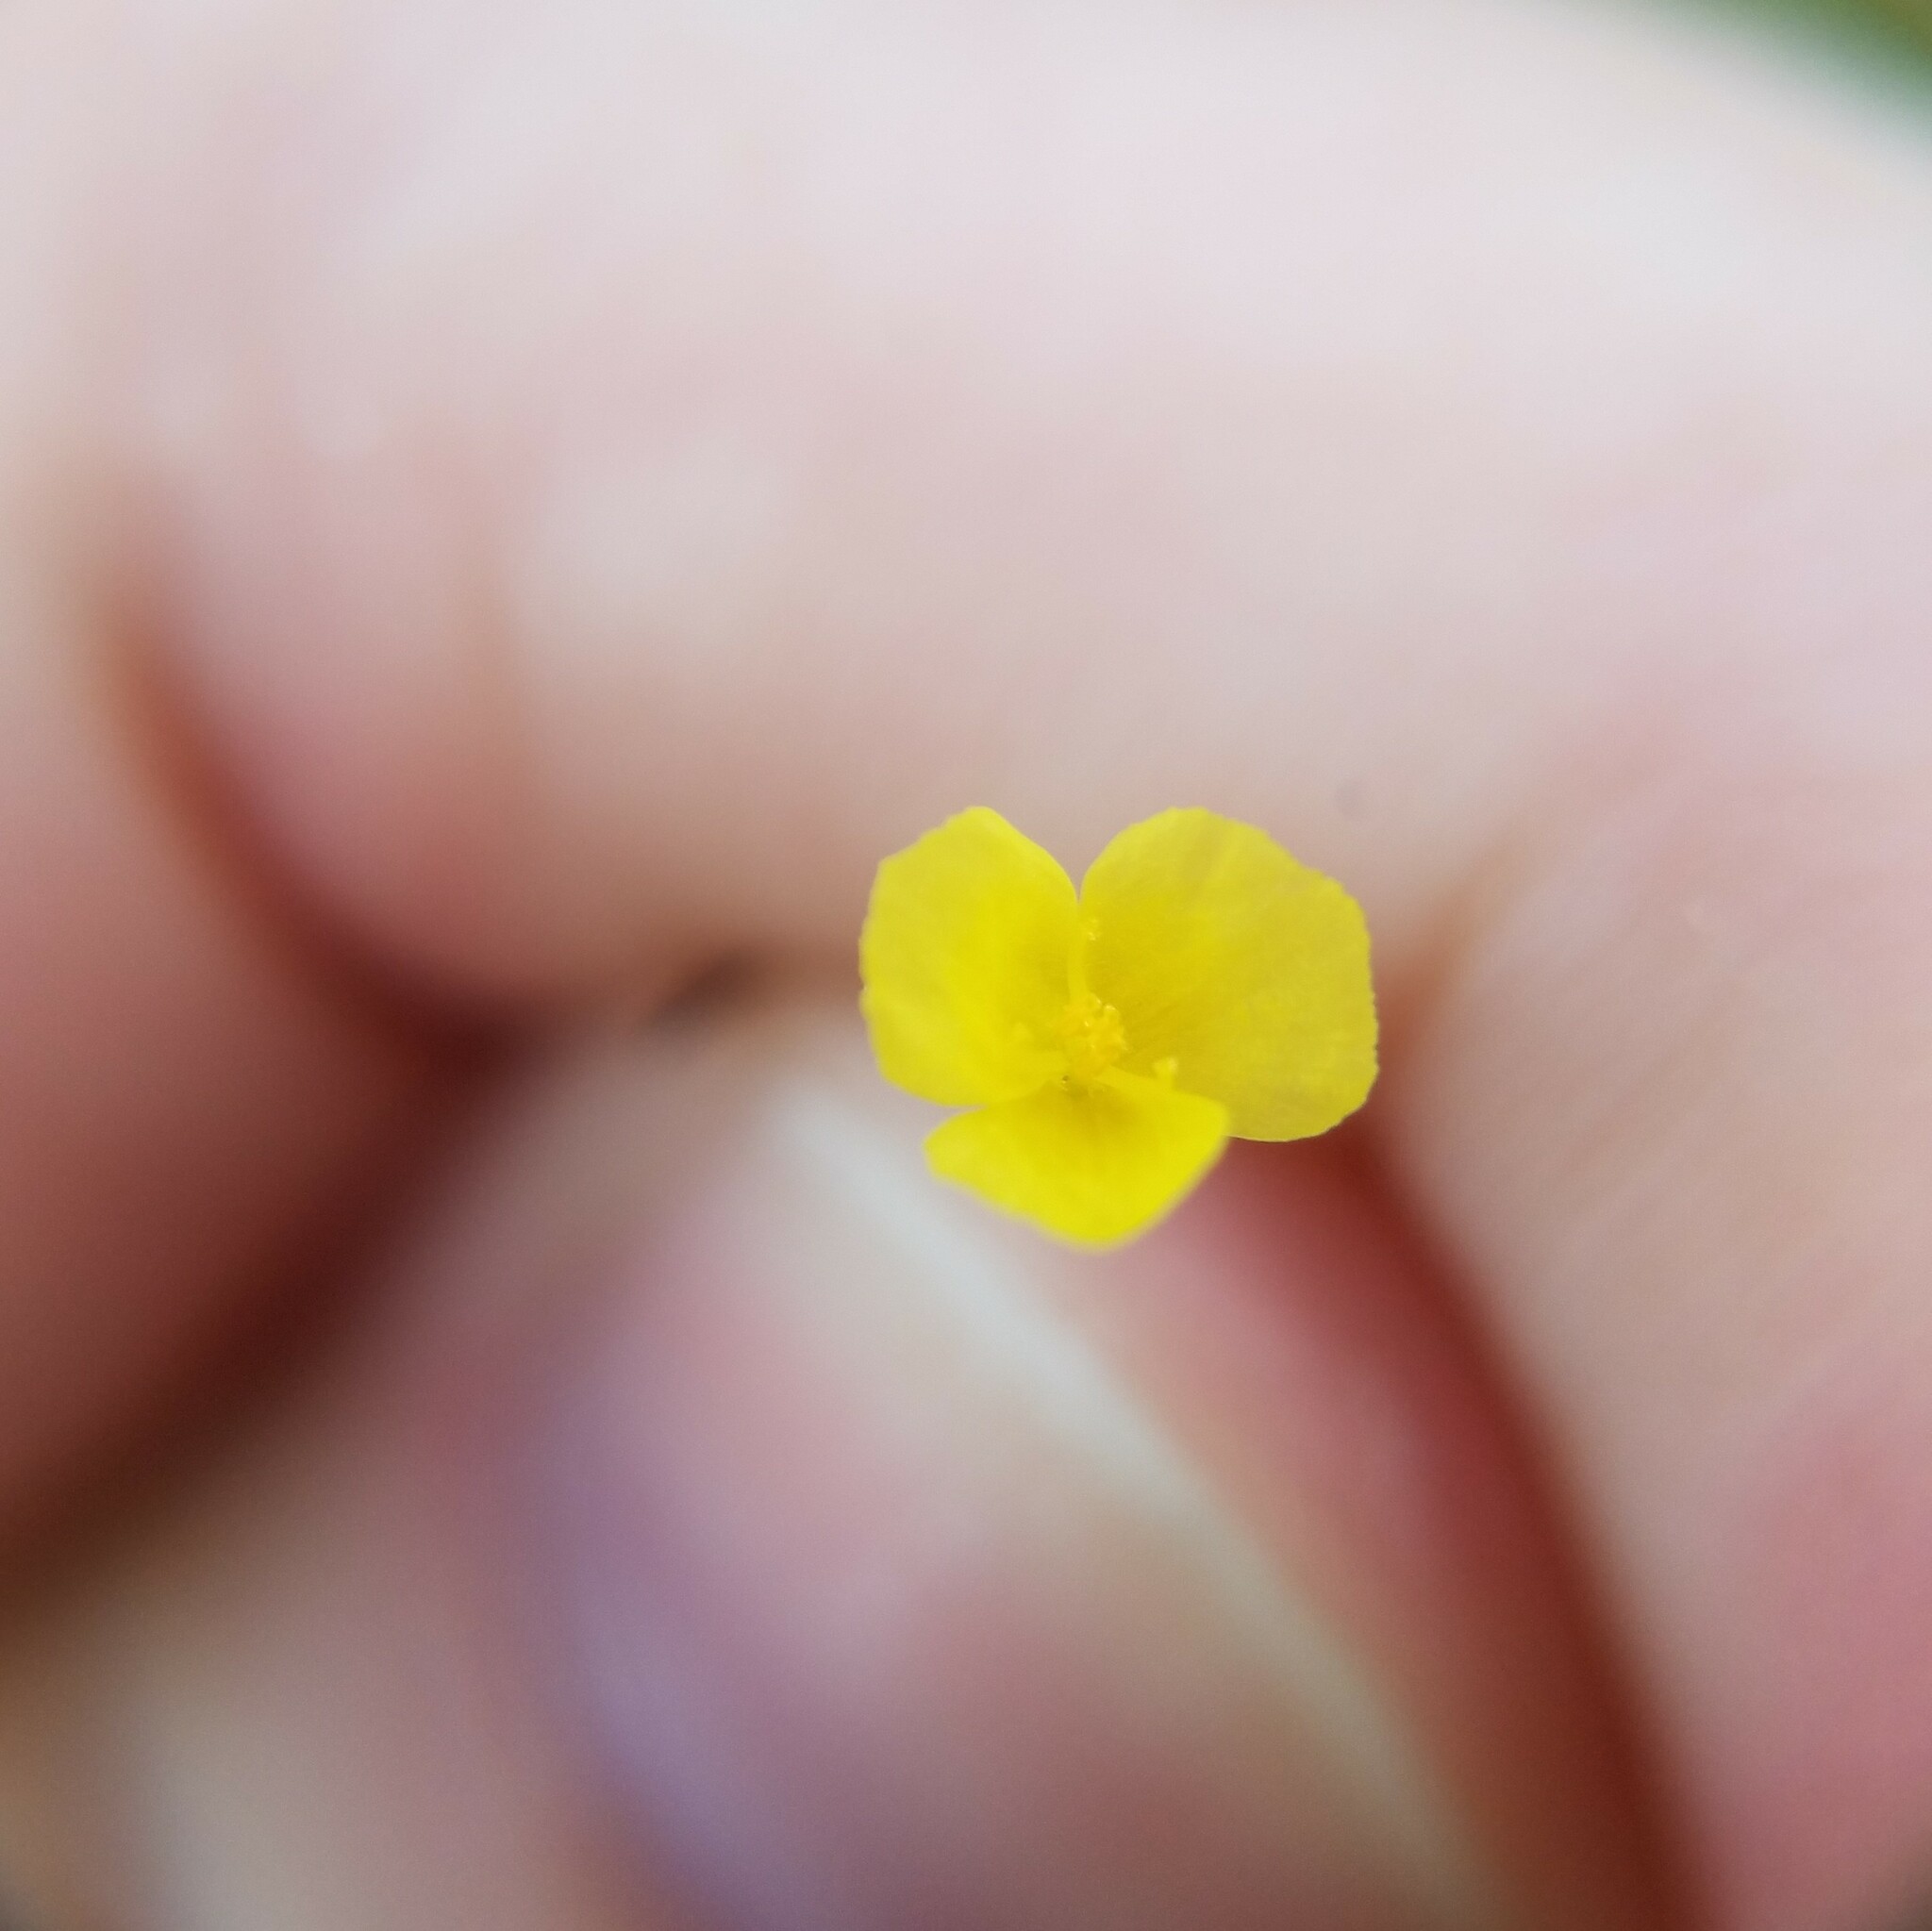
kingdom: Plantae
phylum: Tracheophyta
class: Liliopsida
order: Poales
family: Xyridaceae
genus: Xyris
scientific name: Xyris difformis
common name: Bog yellow-eyed-grass
